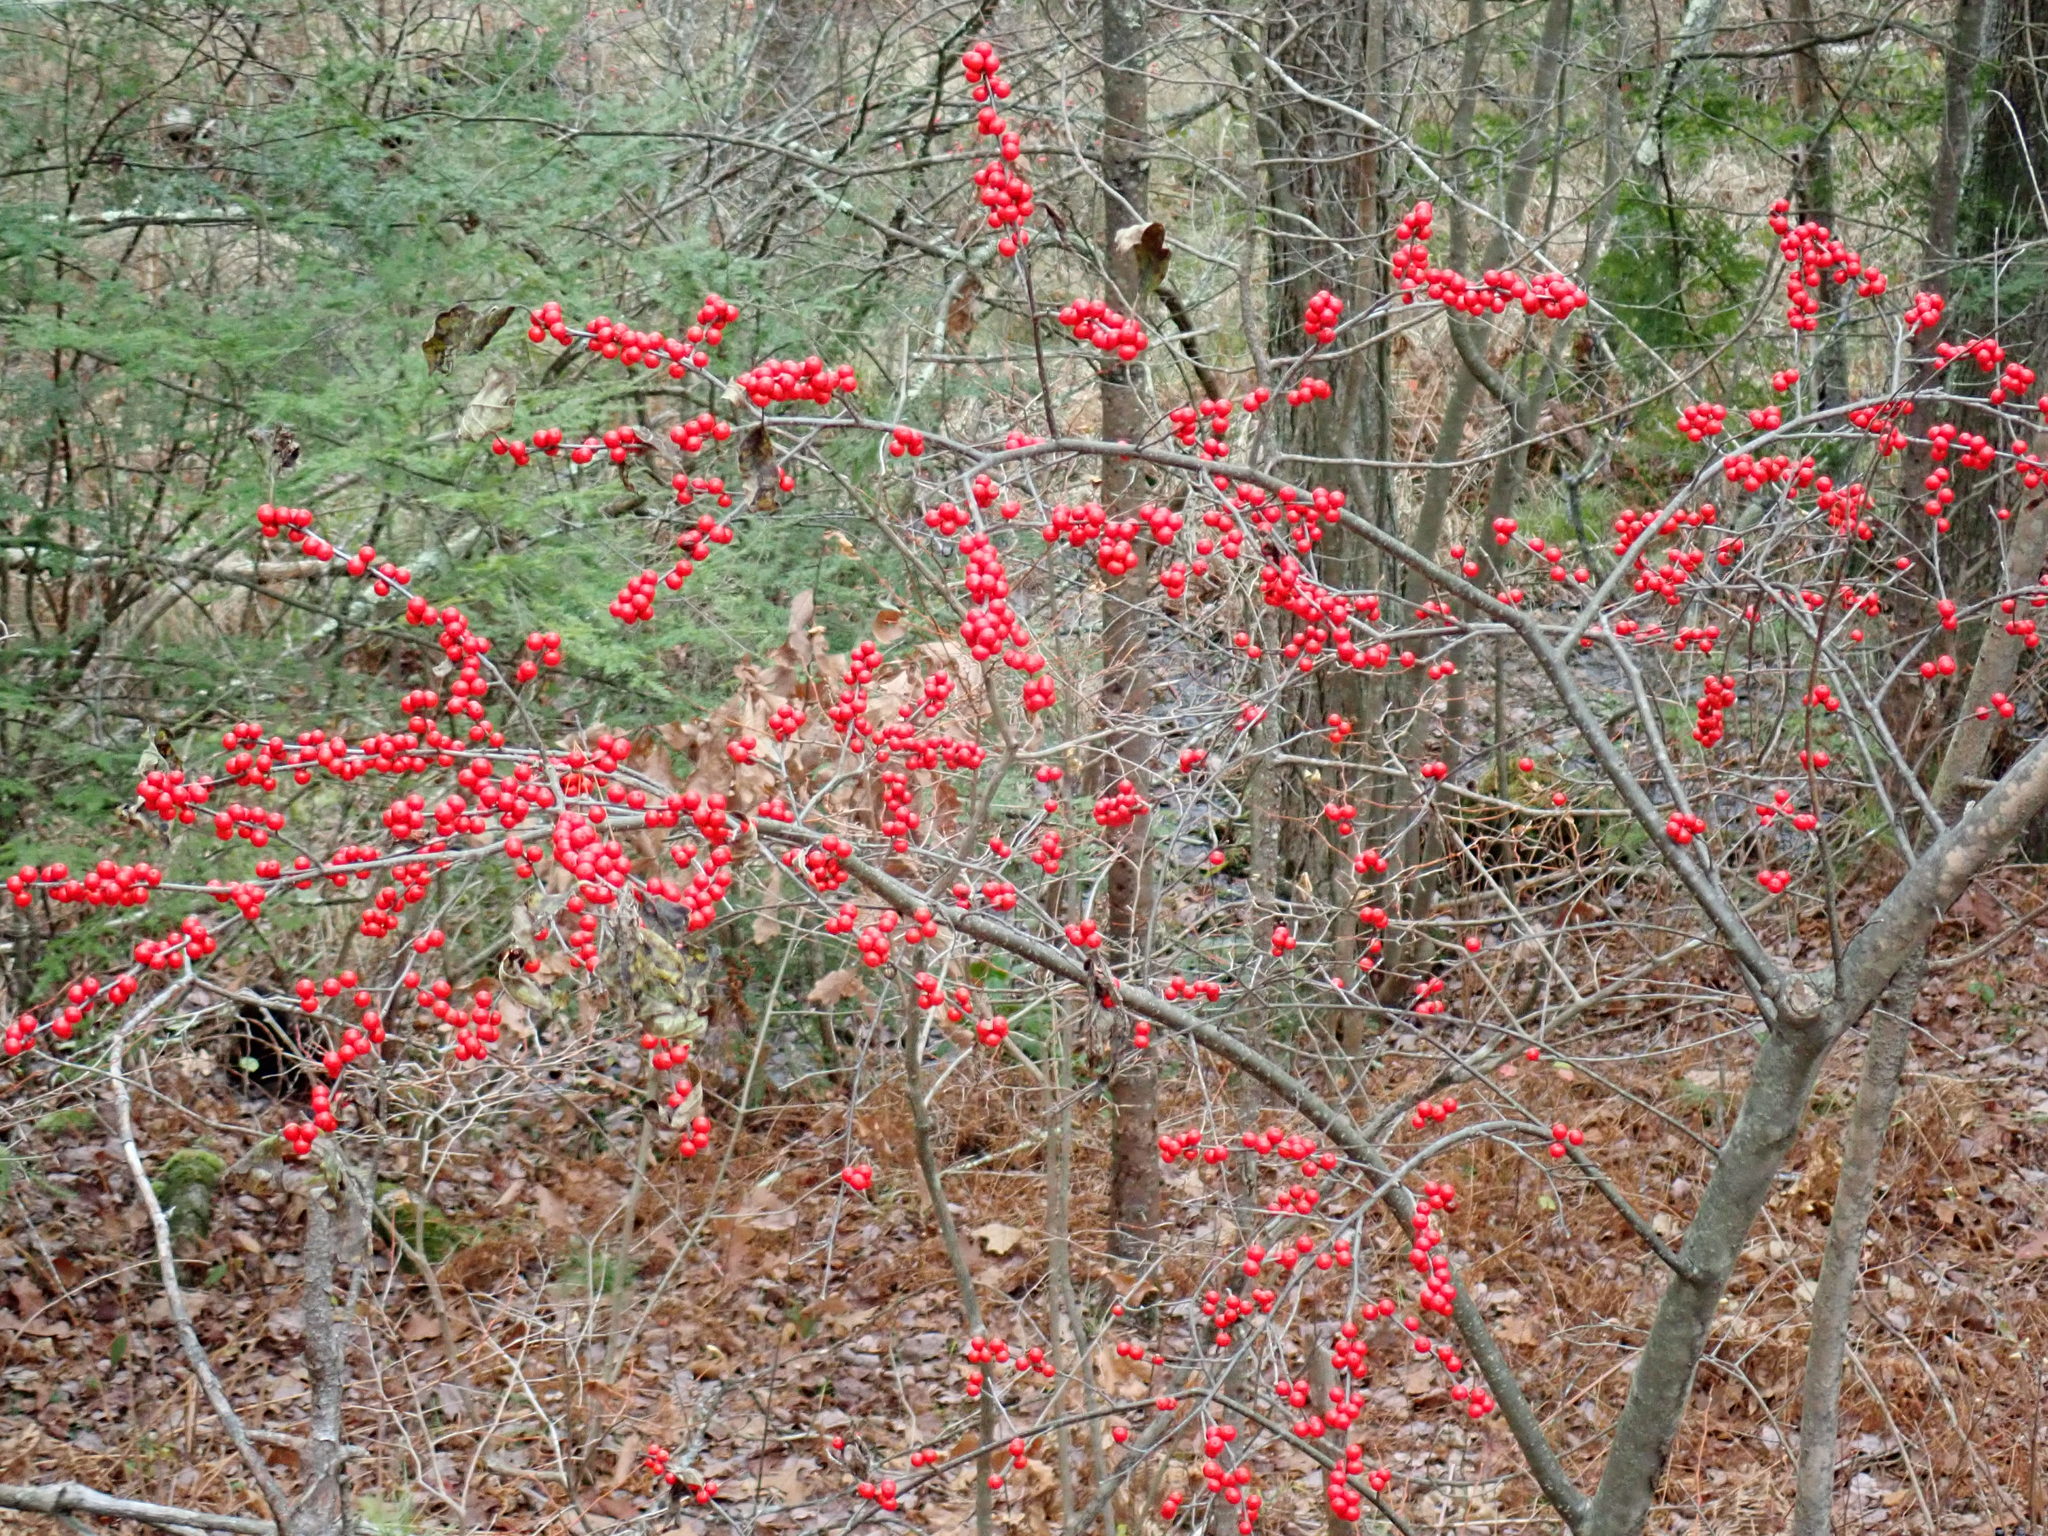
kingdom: Plantae
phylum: Tracheophyta
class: Magnoliopsida
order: Aquifoliales
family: Aquifoliaceae
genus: Ilex
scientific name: Ilex verticillata
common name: Virginia winterberry
